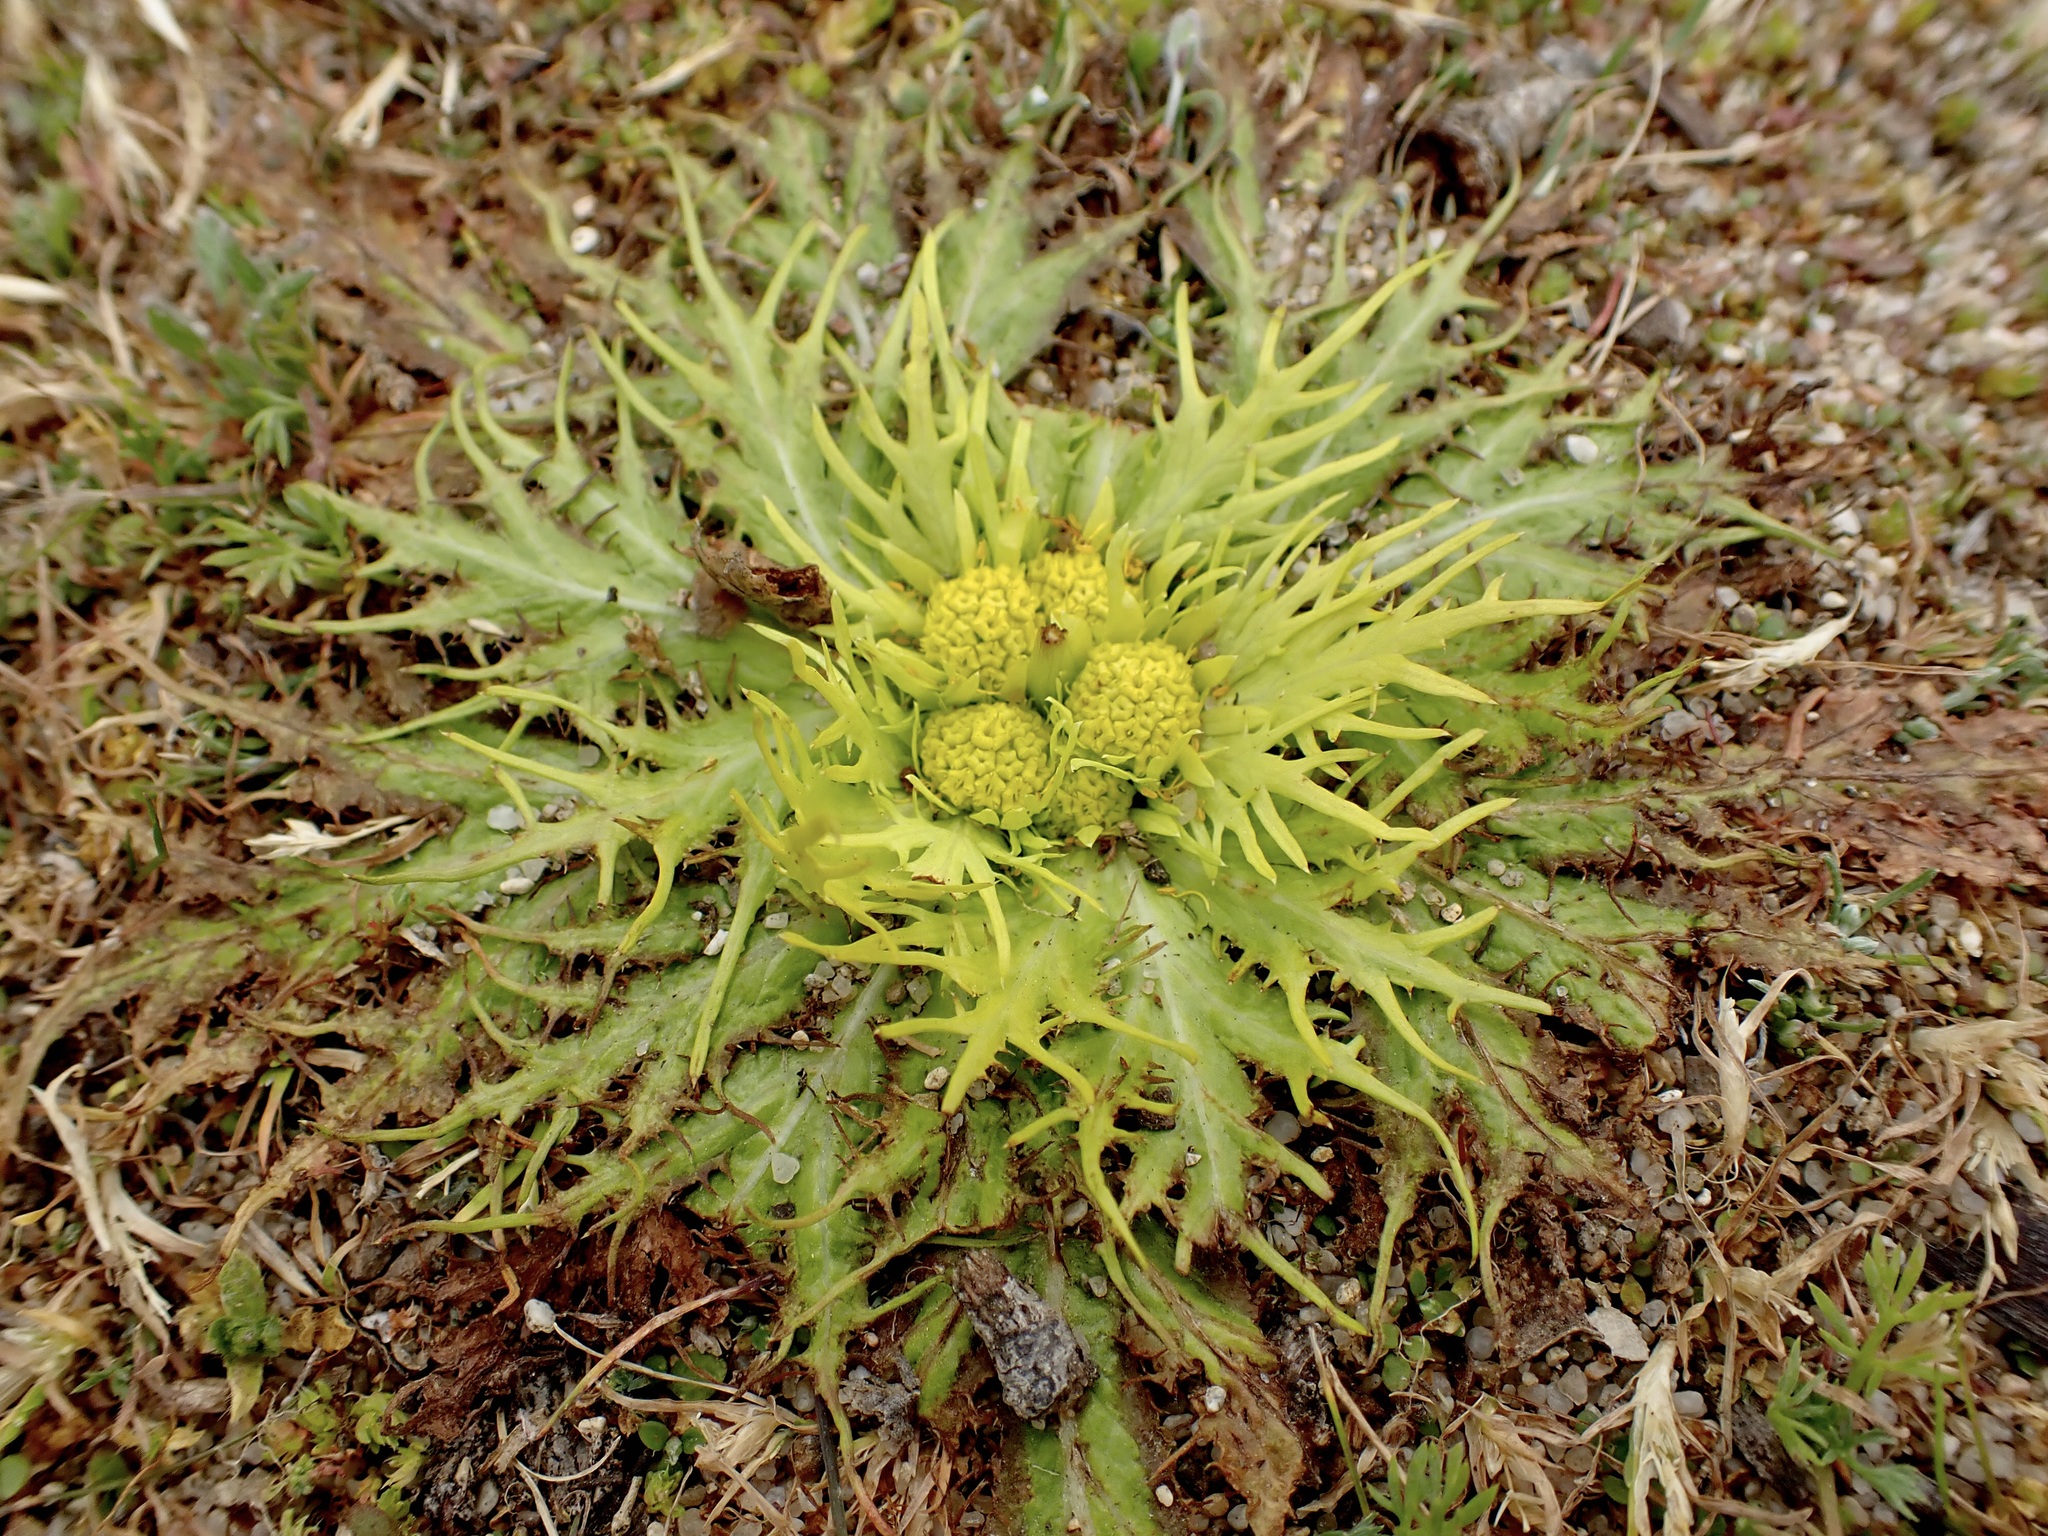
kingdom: Plantae
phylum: Tracheophyta
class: Magnoliopsida
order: Apiales
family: Apiaceae
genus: Sanicula
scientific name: Sanicula arctopoides
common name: Footsteps-of-spring
